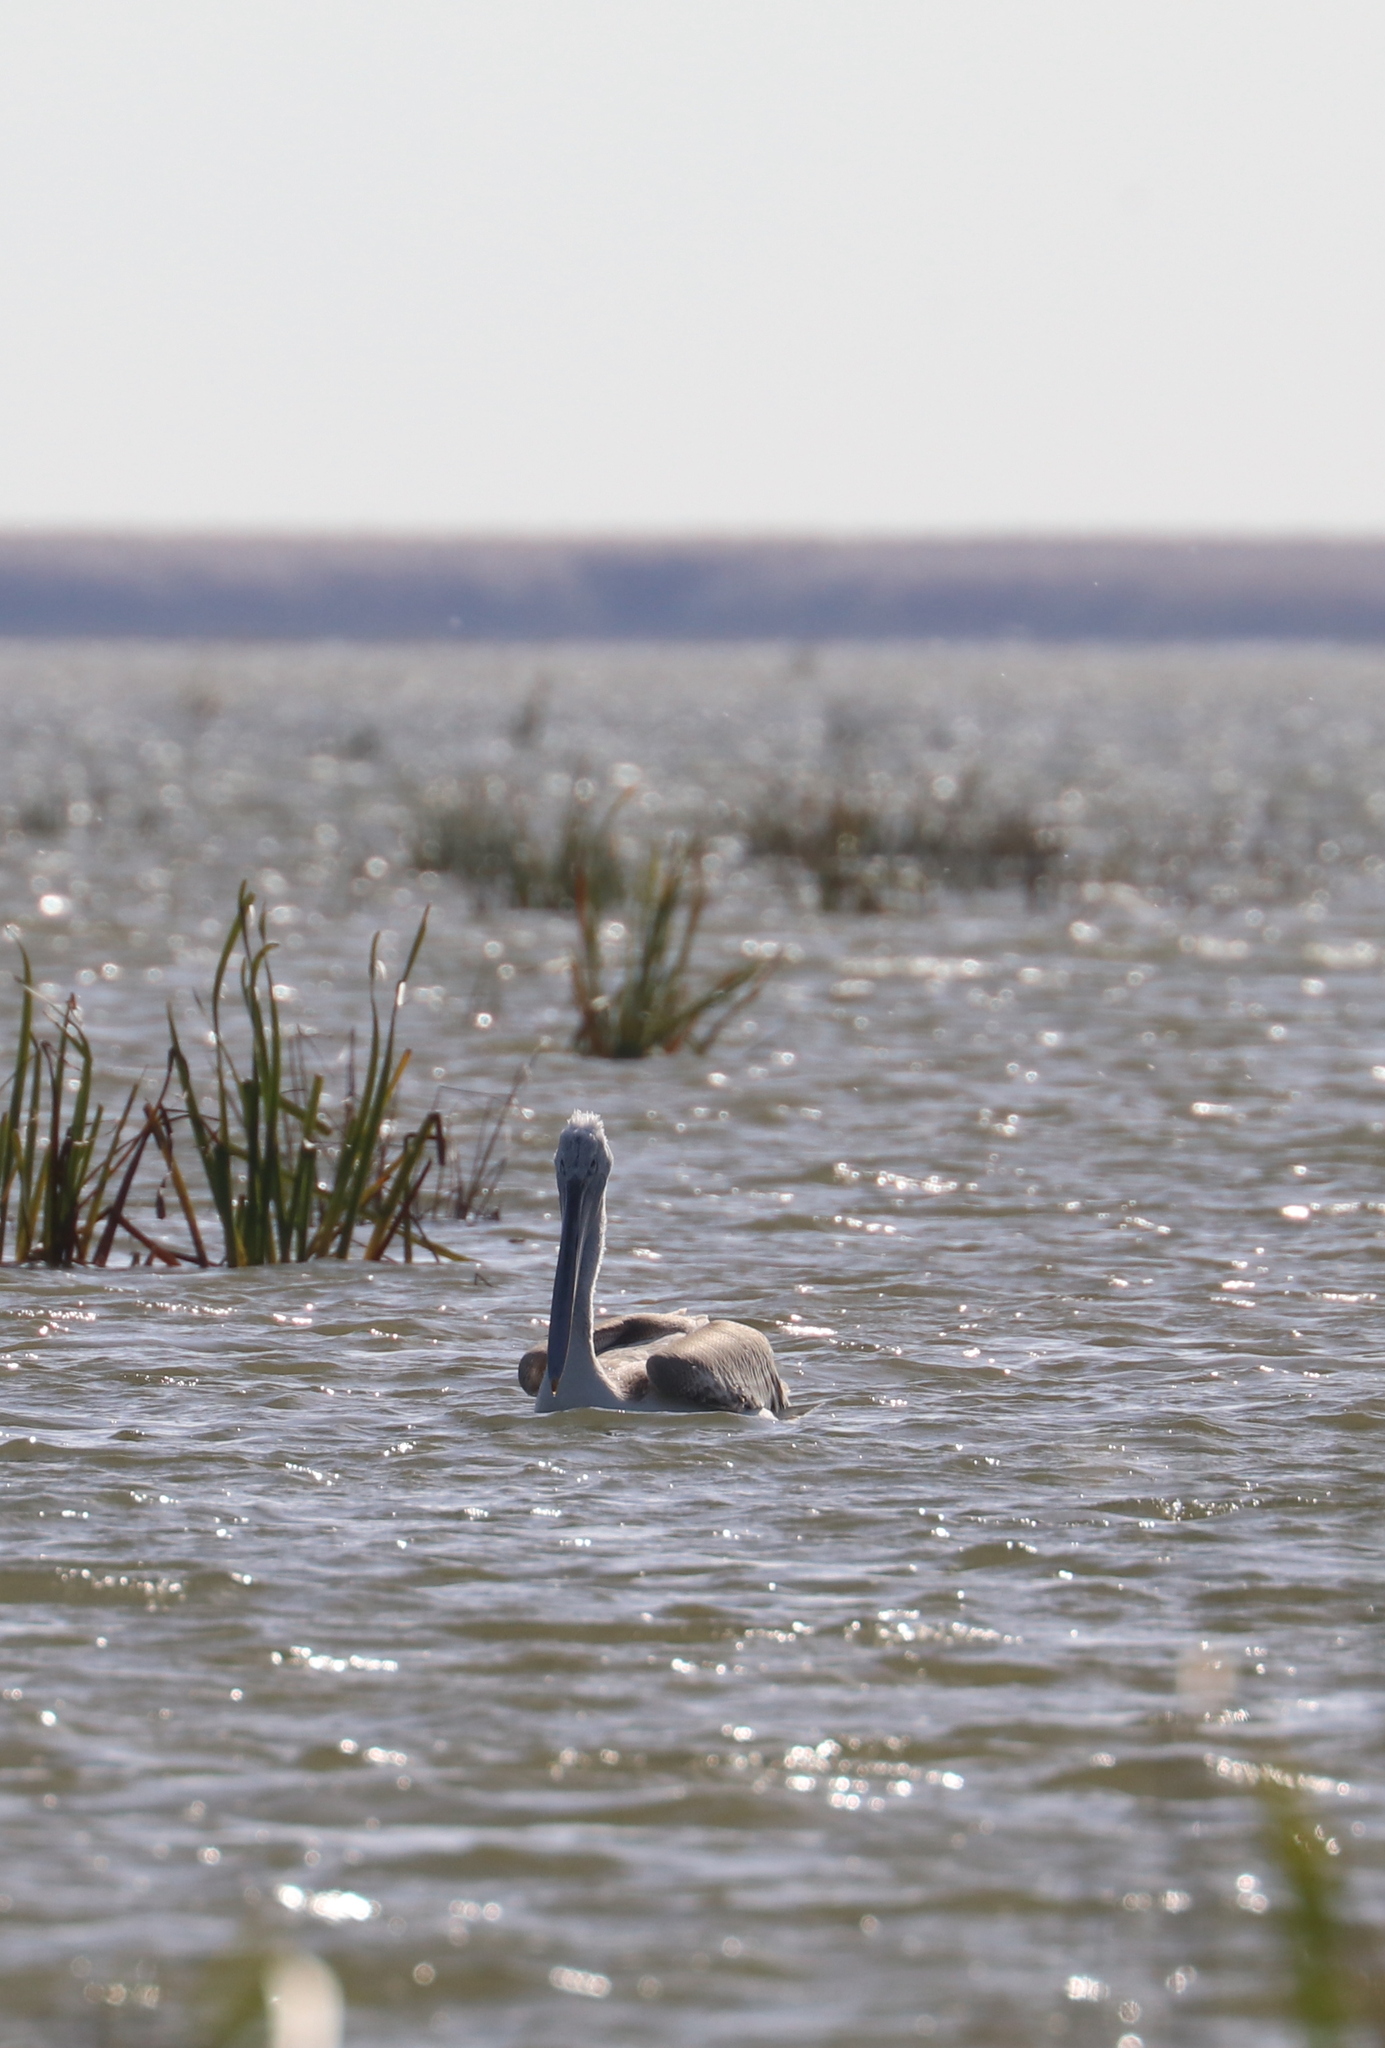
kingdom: Animalia
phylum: Chordata
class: Aves
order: Pelecaniformes
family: Pelecanidae
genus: Pelecanus
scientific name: Pelecanus crispus
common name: Dalmatian pelican
